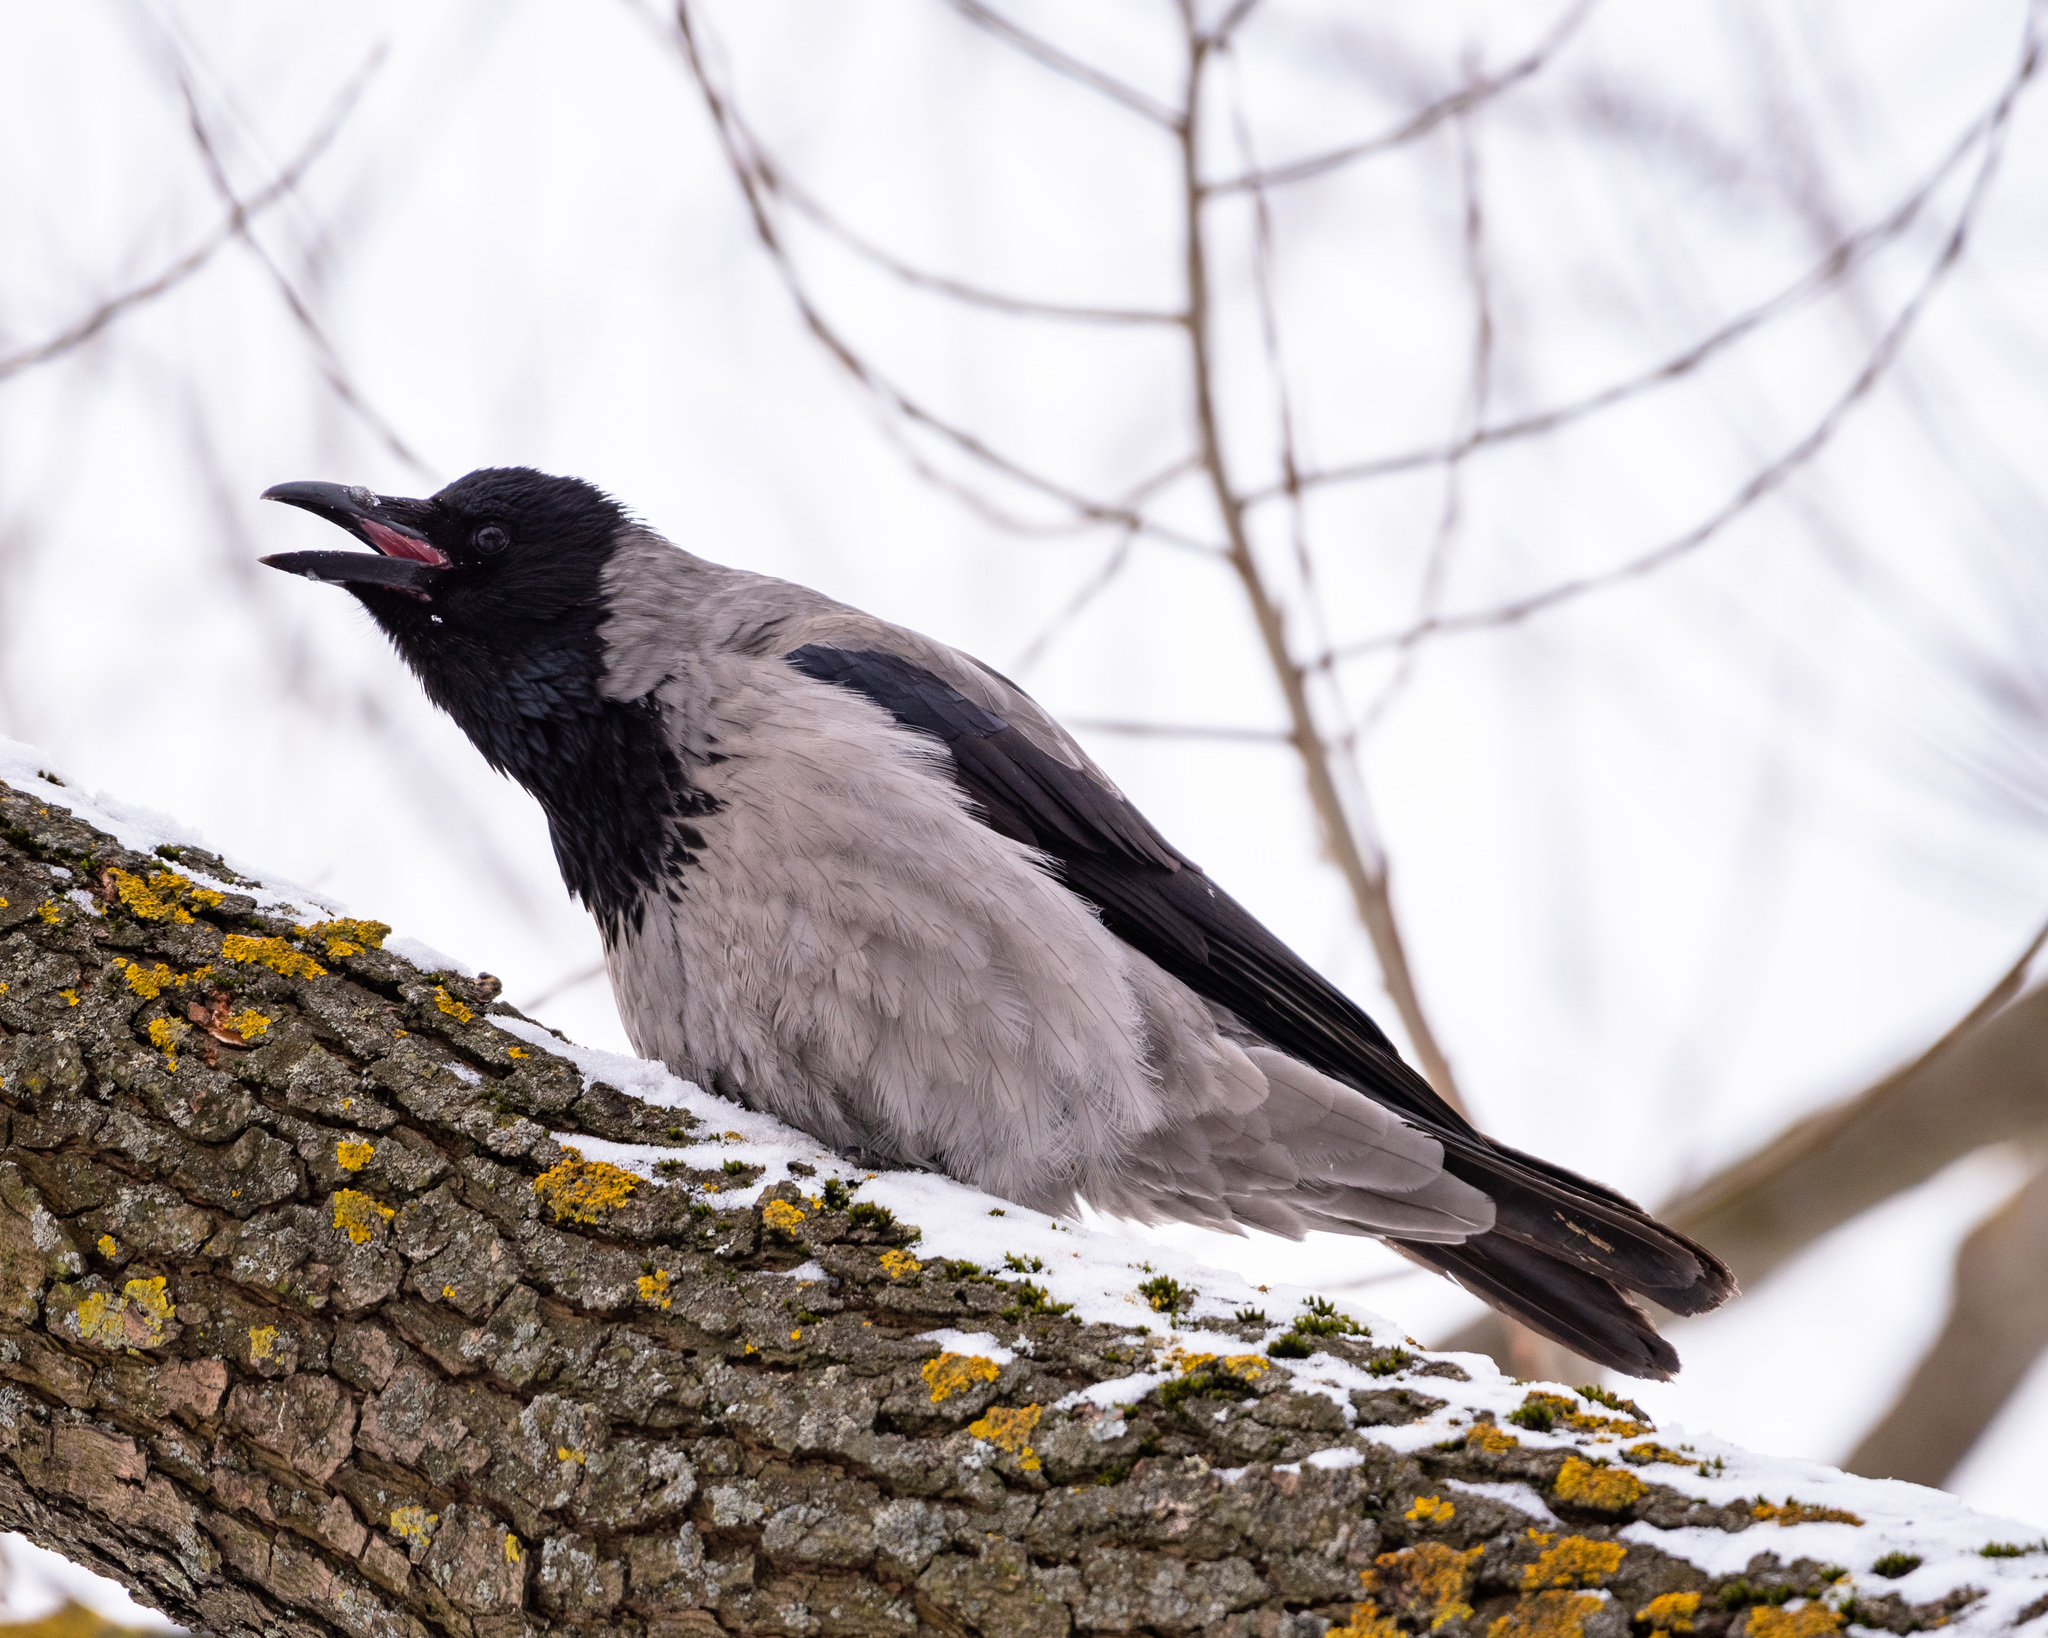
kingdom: Animalia
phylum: Chordata
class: Aves
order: Passeriformes
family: Corvidae
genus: Corvus
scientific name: Corvus cornix
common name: Hooded crow
